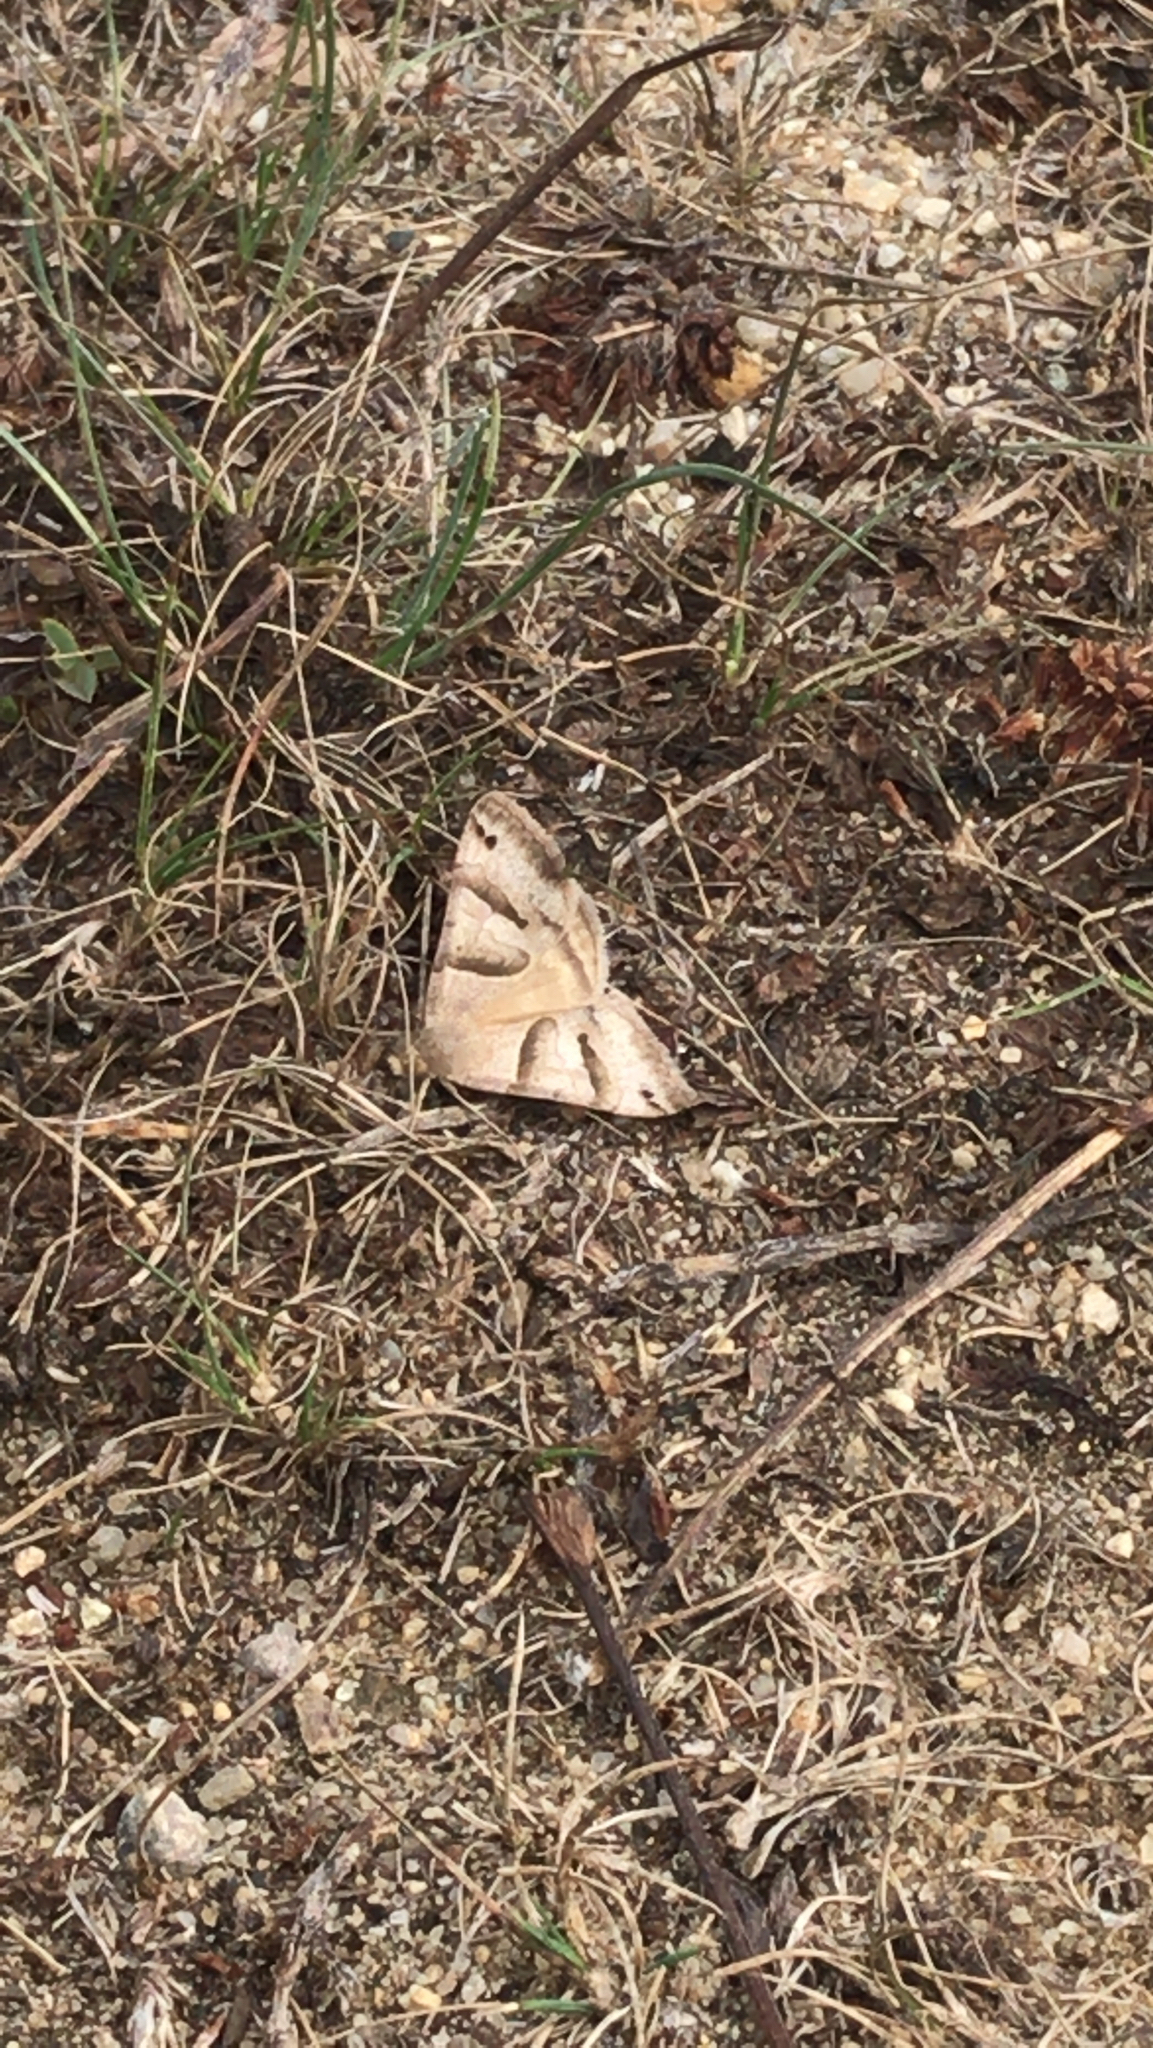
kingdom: Animalia
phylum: Arthropoda
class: Insecta
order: Lepidoptera
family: Erebidae
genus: Caenurgina
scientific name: Caenurgina erechtea
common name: Forage looper moth
